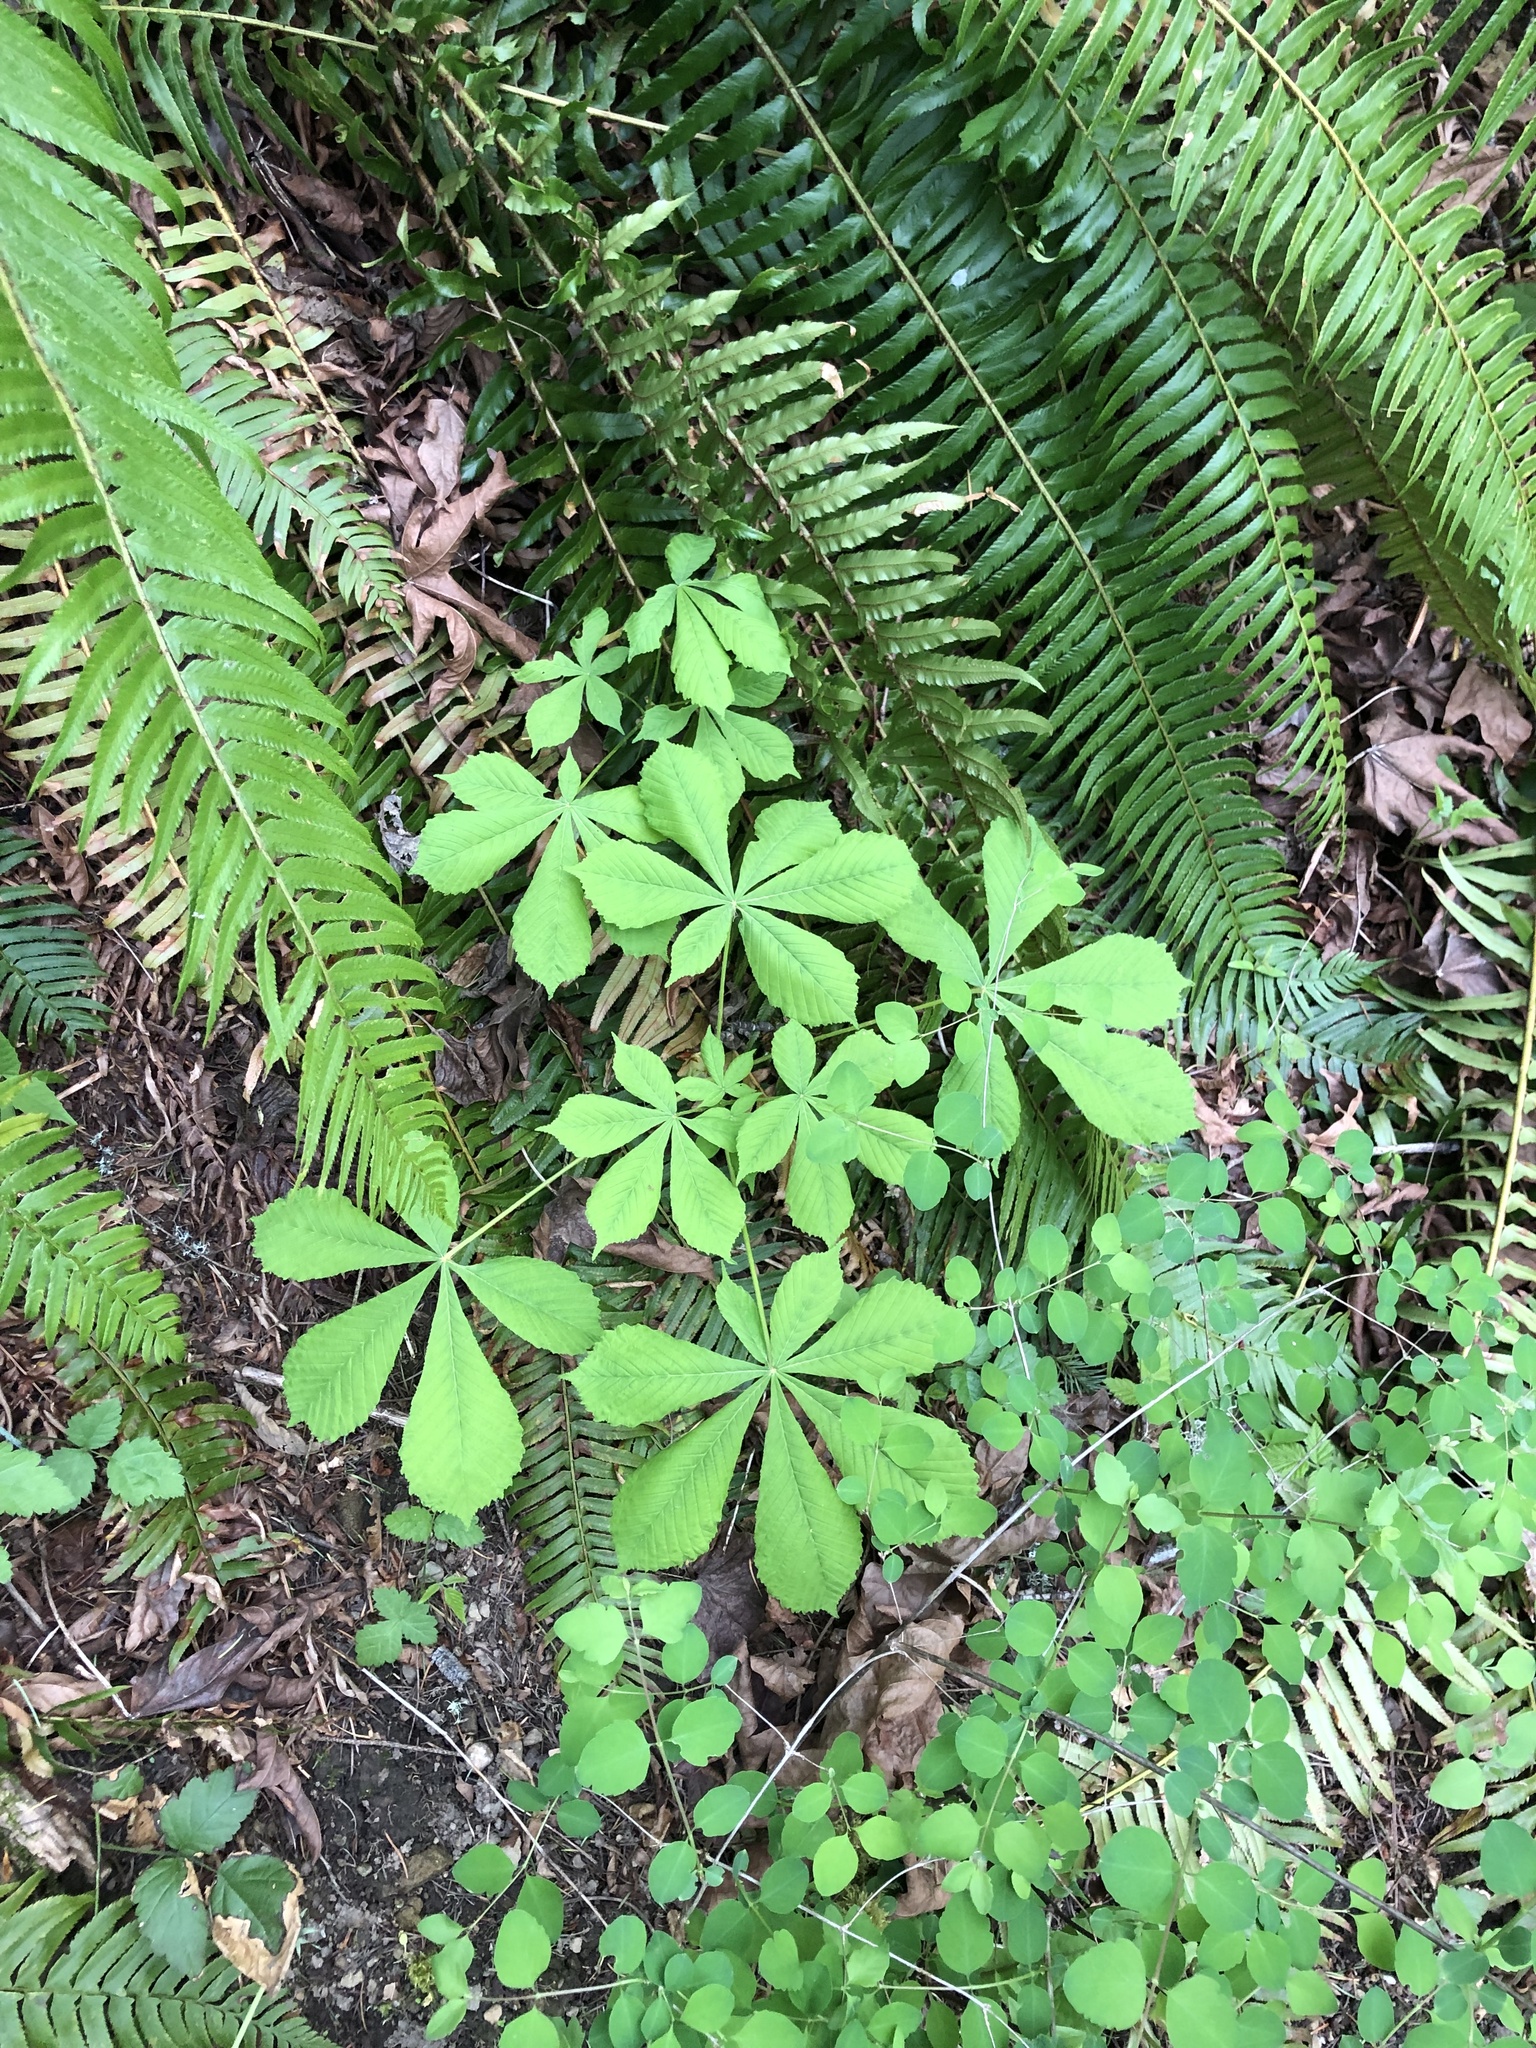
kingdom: Plantae
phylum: Tracheophyta
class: Magnoliopsida
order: Sapindales
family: Sapindaceae
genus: Aesculus
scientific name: Aesculus hippocastanum
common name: Horse-chestnut
